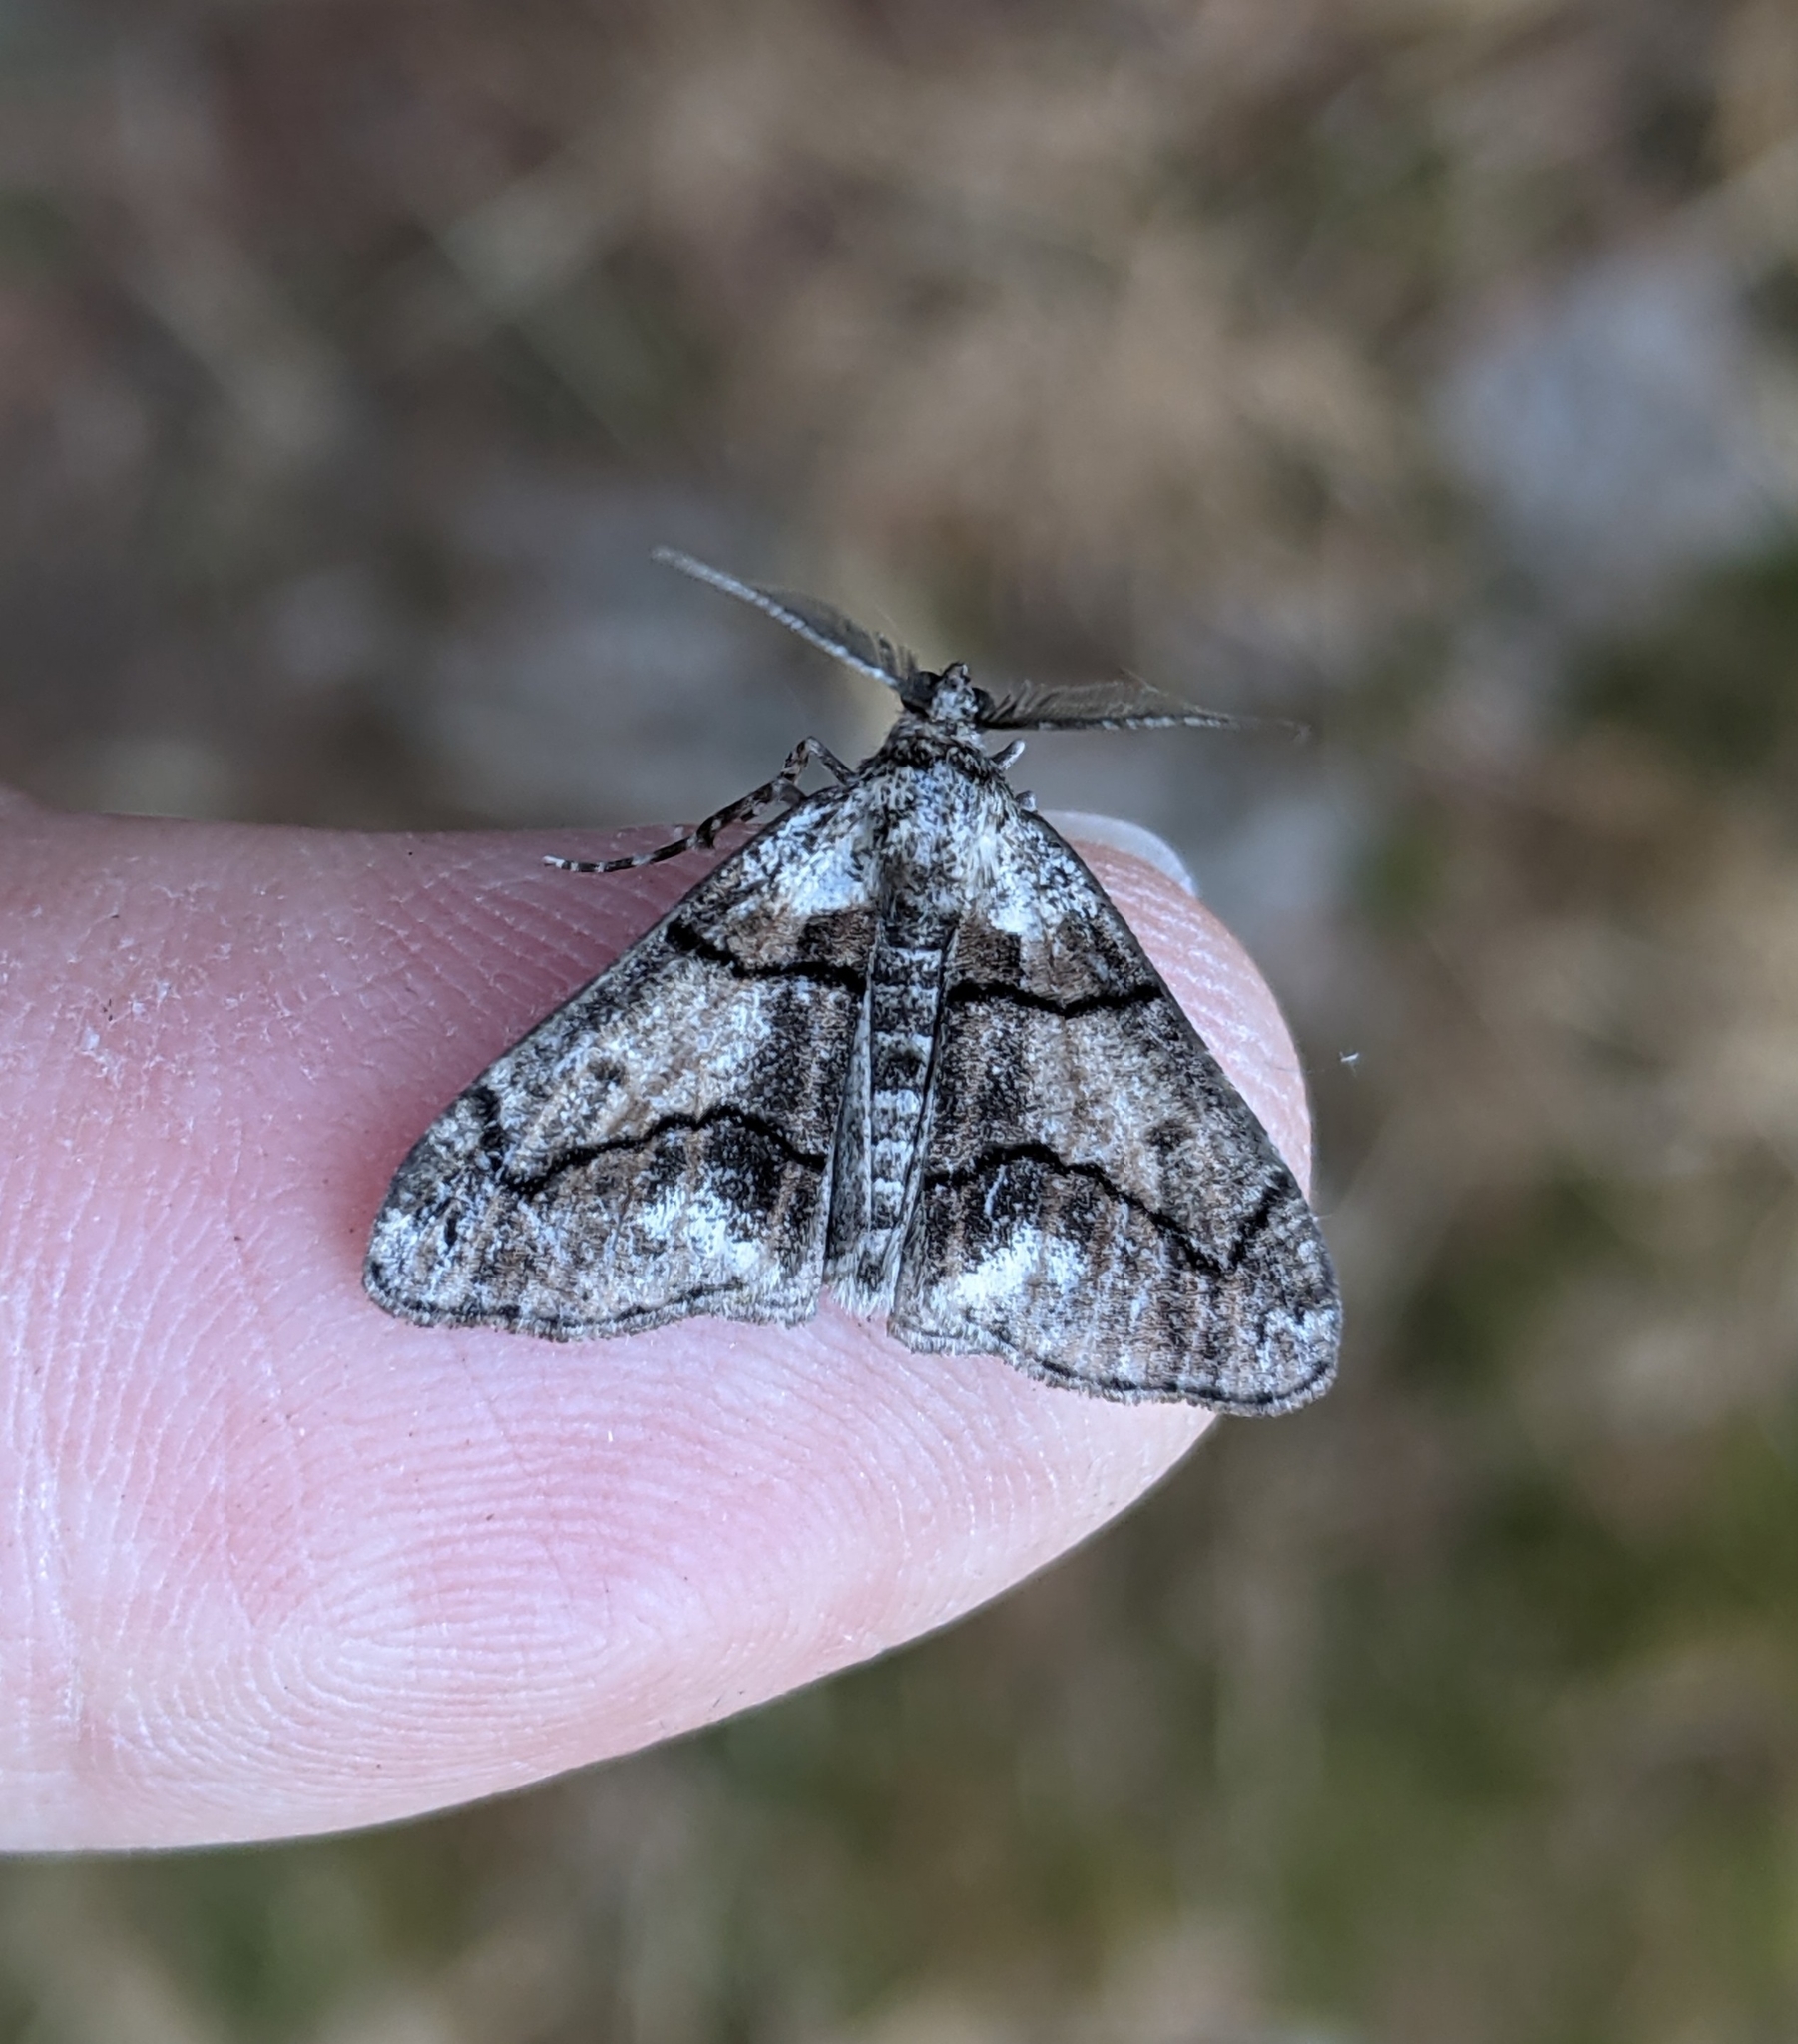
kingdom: Animalia
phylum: Arthropoda
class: Insecta
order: Lepidoptera
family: Geometridae
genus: Gabriola
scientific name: Gabriola dyari
